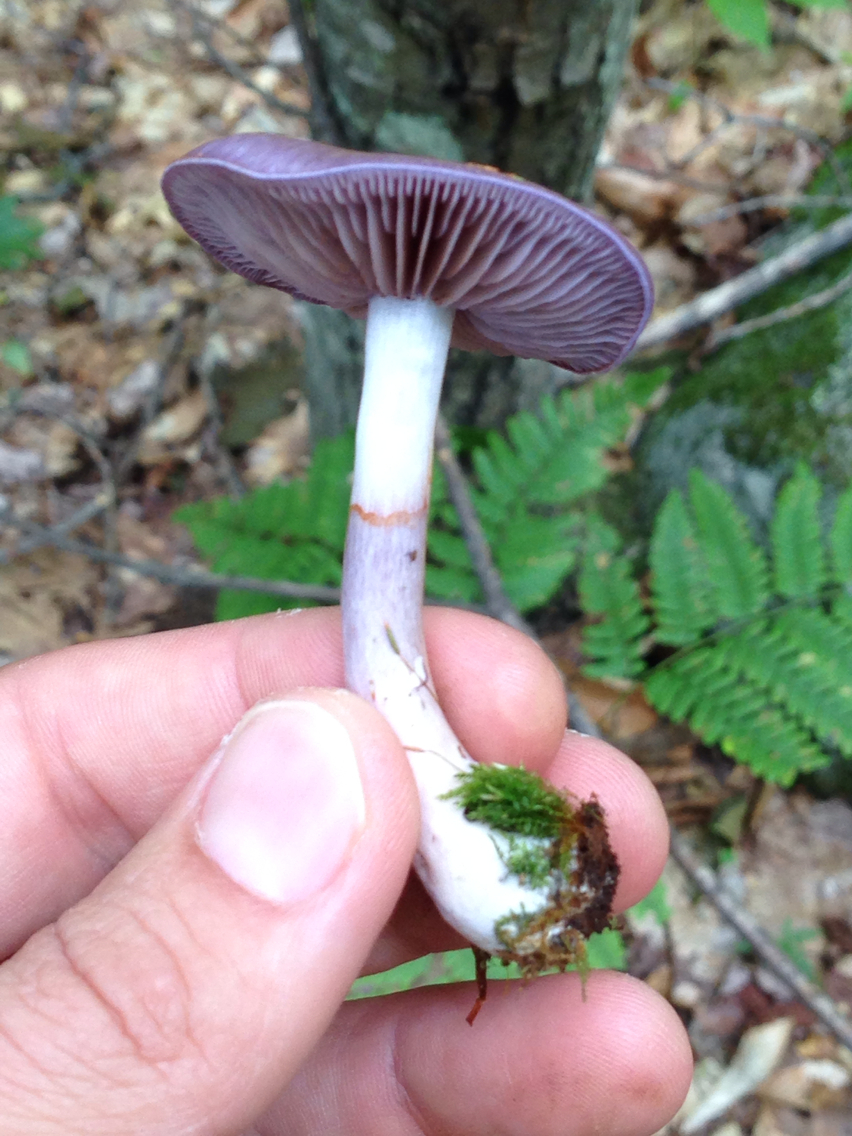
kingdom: Fungi
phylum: Basidiomycota
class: Agaricomycetes
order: Agaricales
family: Cortinariaceae
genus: Cortinarius
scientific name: Cortinarius iodes
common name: Viscid violet cort
